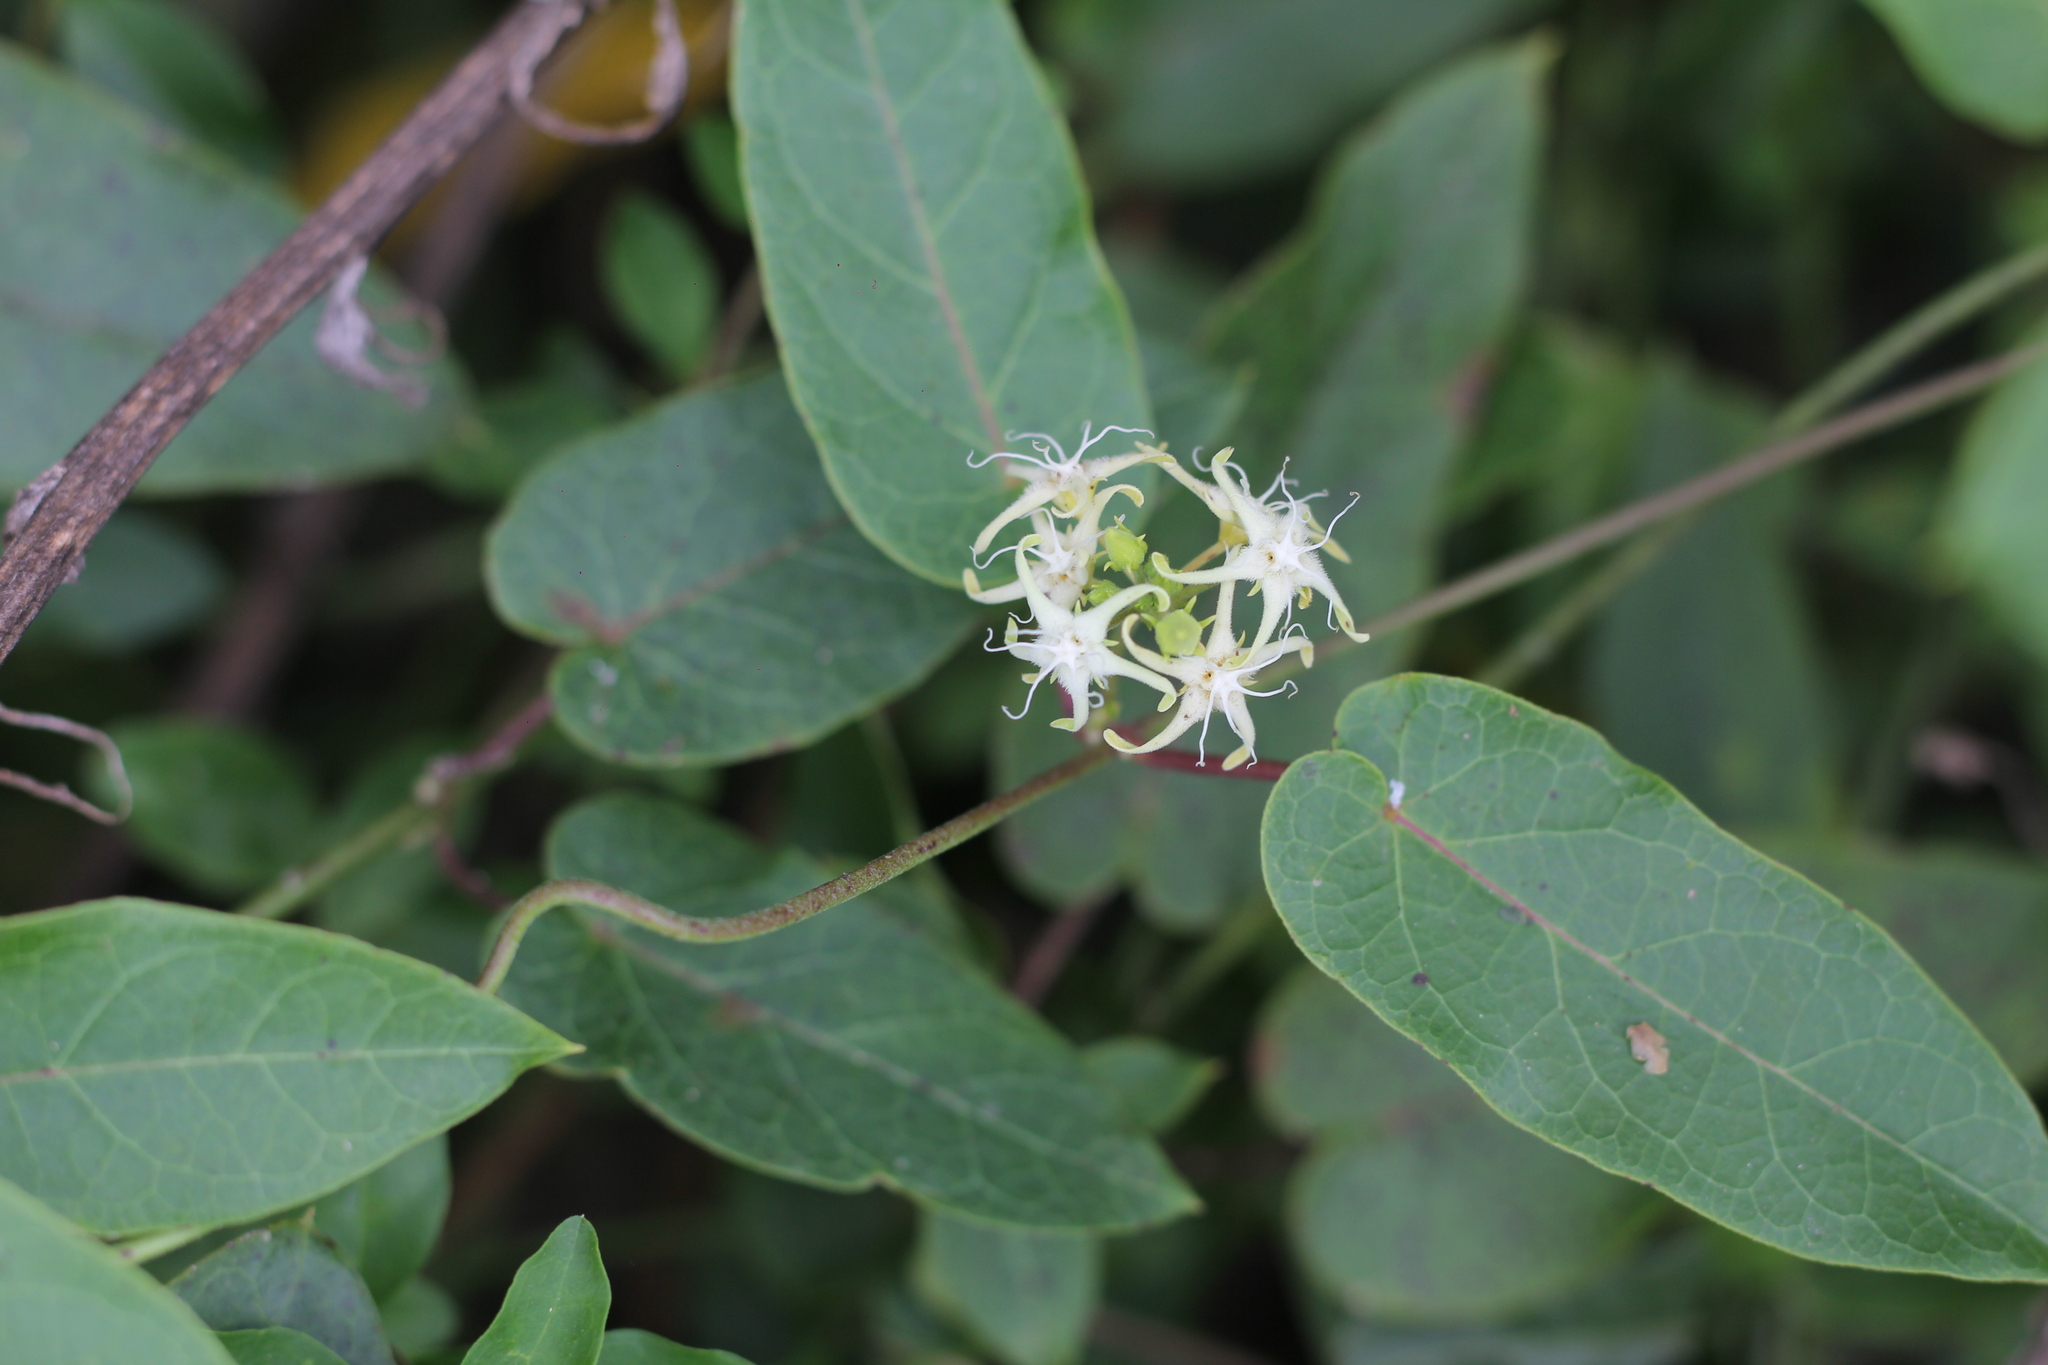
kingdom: Plantae
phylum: Tracheophyta
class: Magnoliopsida
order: Gentianales
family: Apocynaceae
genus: Oxypetalum
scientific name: Oxypetalum sylvestre
